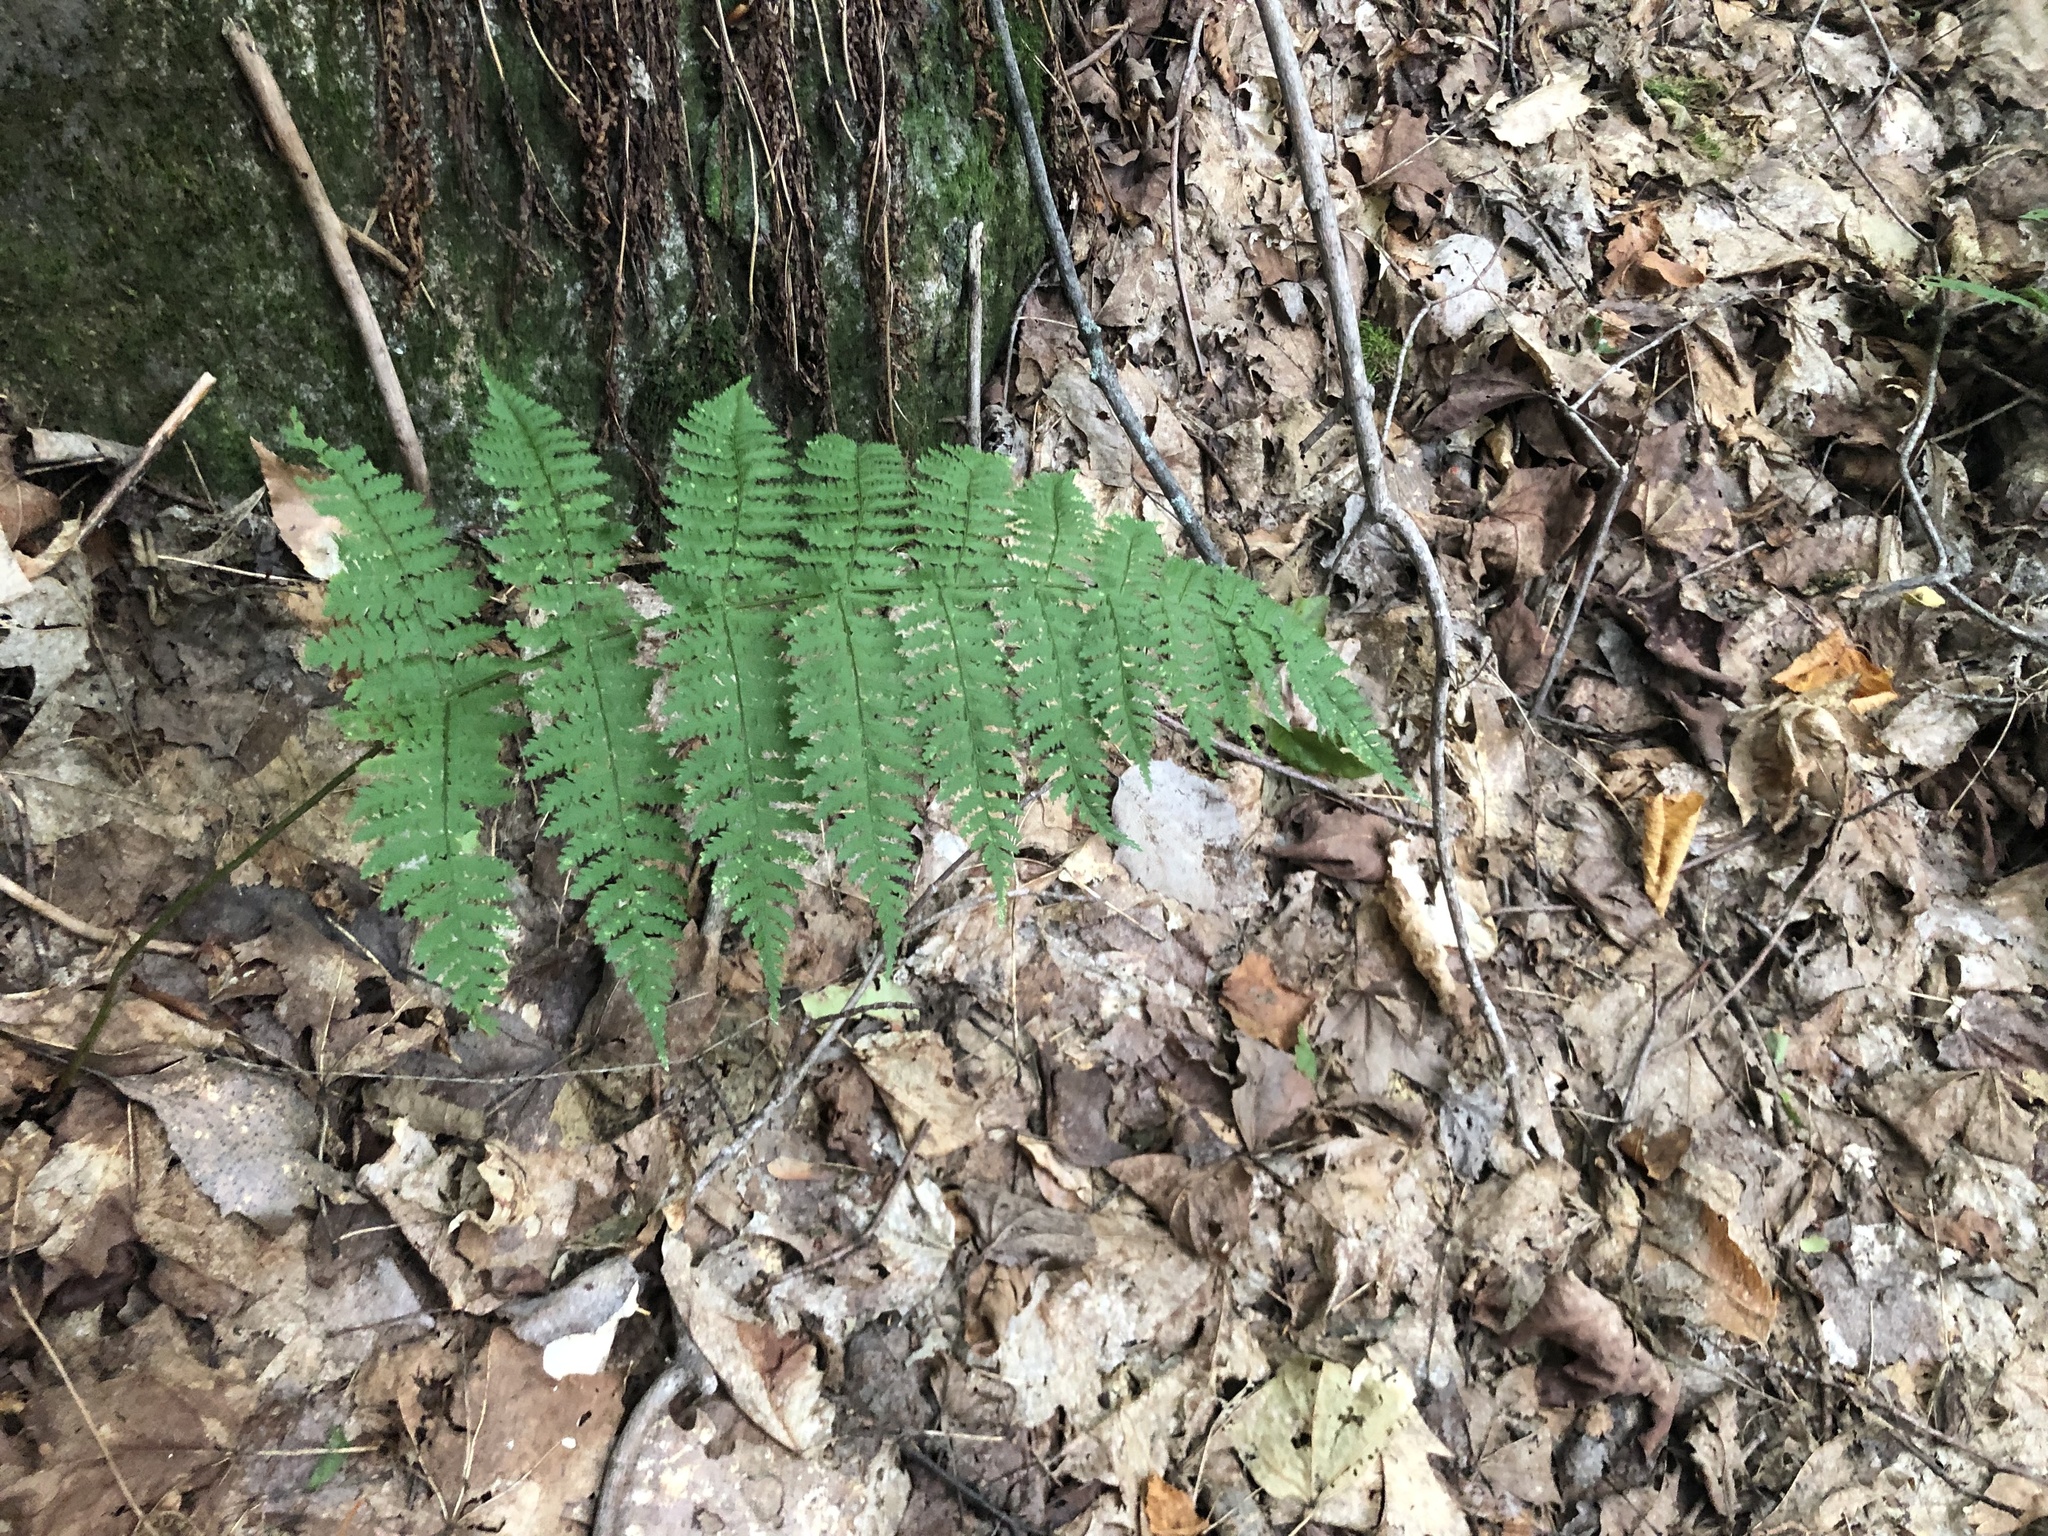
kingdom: Plantae
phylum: Tracheophyta
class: Polypodiopsida
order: Polypodiales
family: Dryopteridaceae
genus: Dryopteris
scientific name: Dryopteris intermedia
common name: Evergreen wood fern
